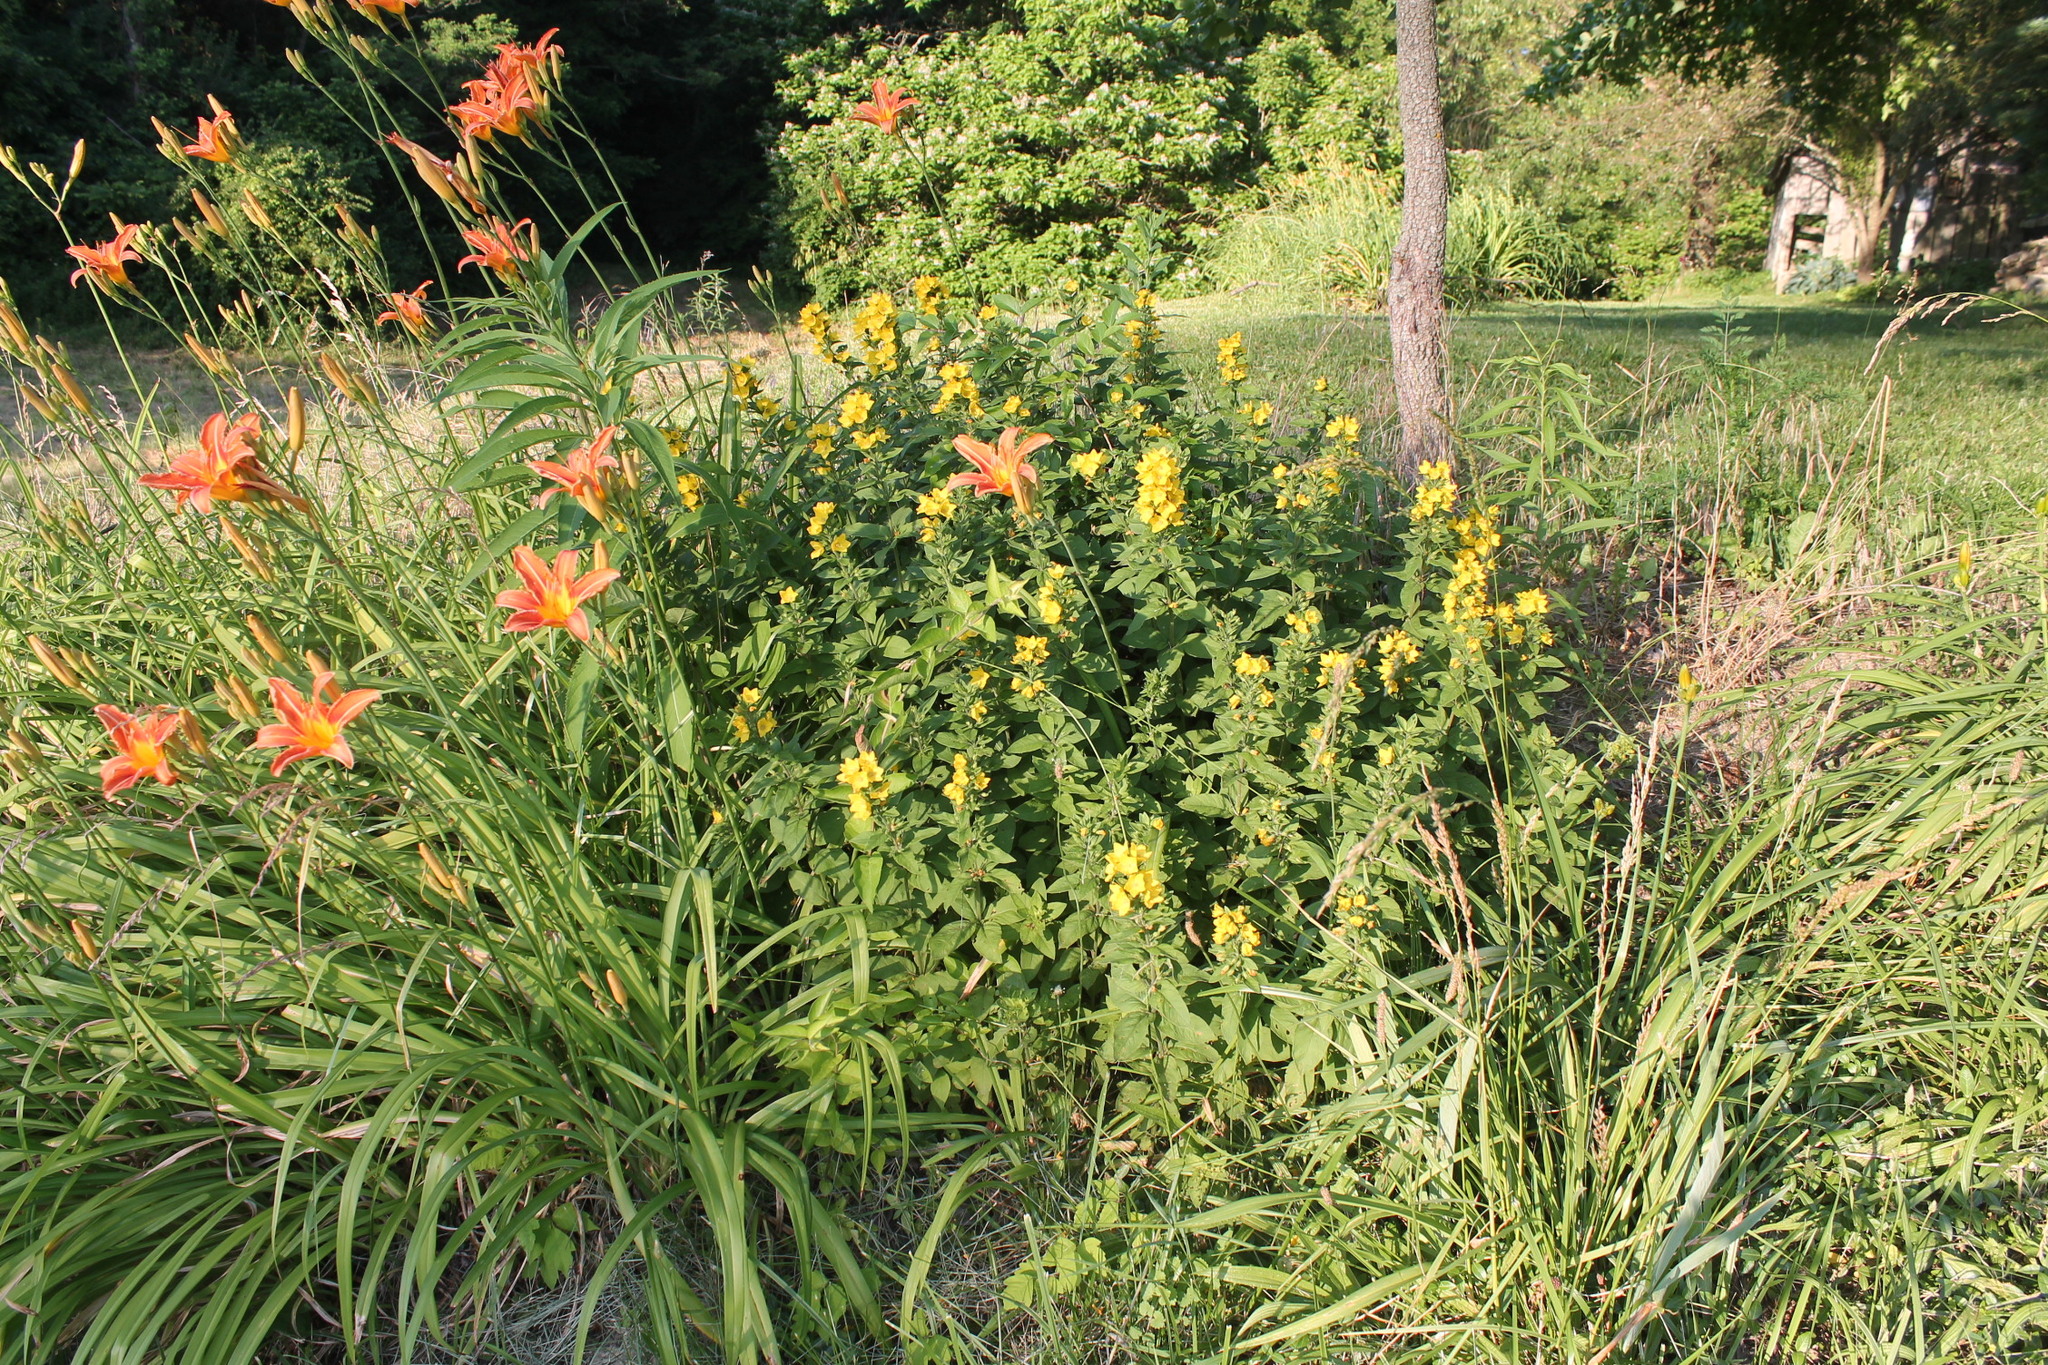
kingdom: Plantae
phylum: Tracheophyta
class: Magnoliopsida
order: Ericales
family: Primulaceae
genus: Lysimachia
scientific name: Lysimachia punctata
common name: Dotted loosestrife
